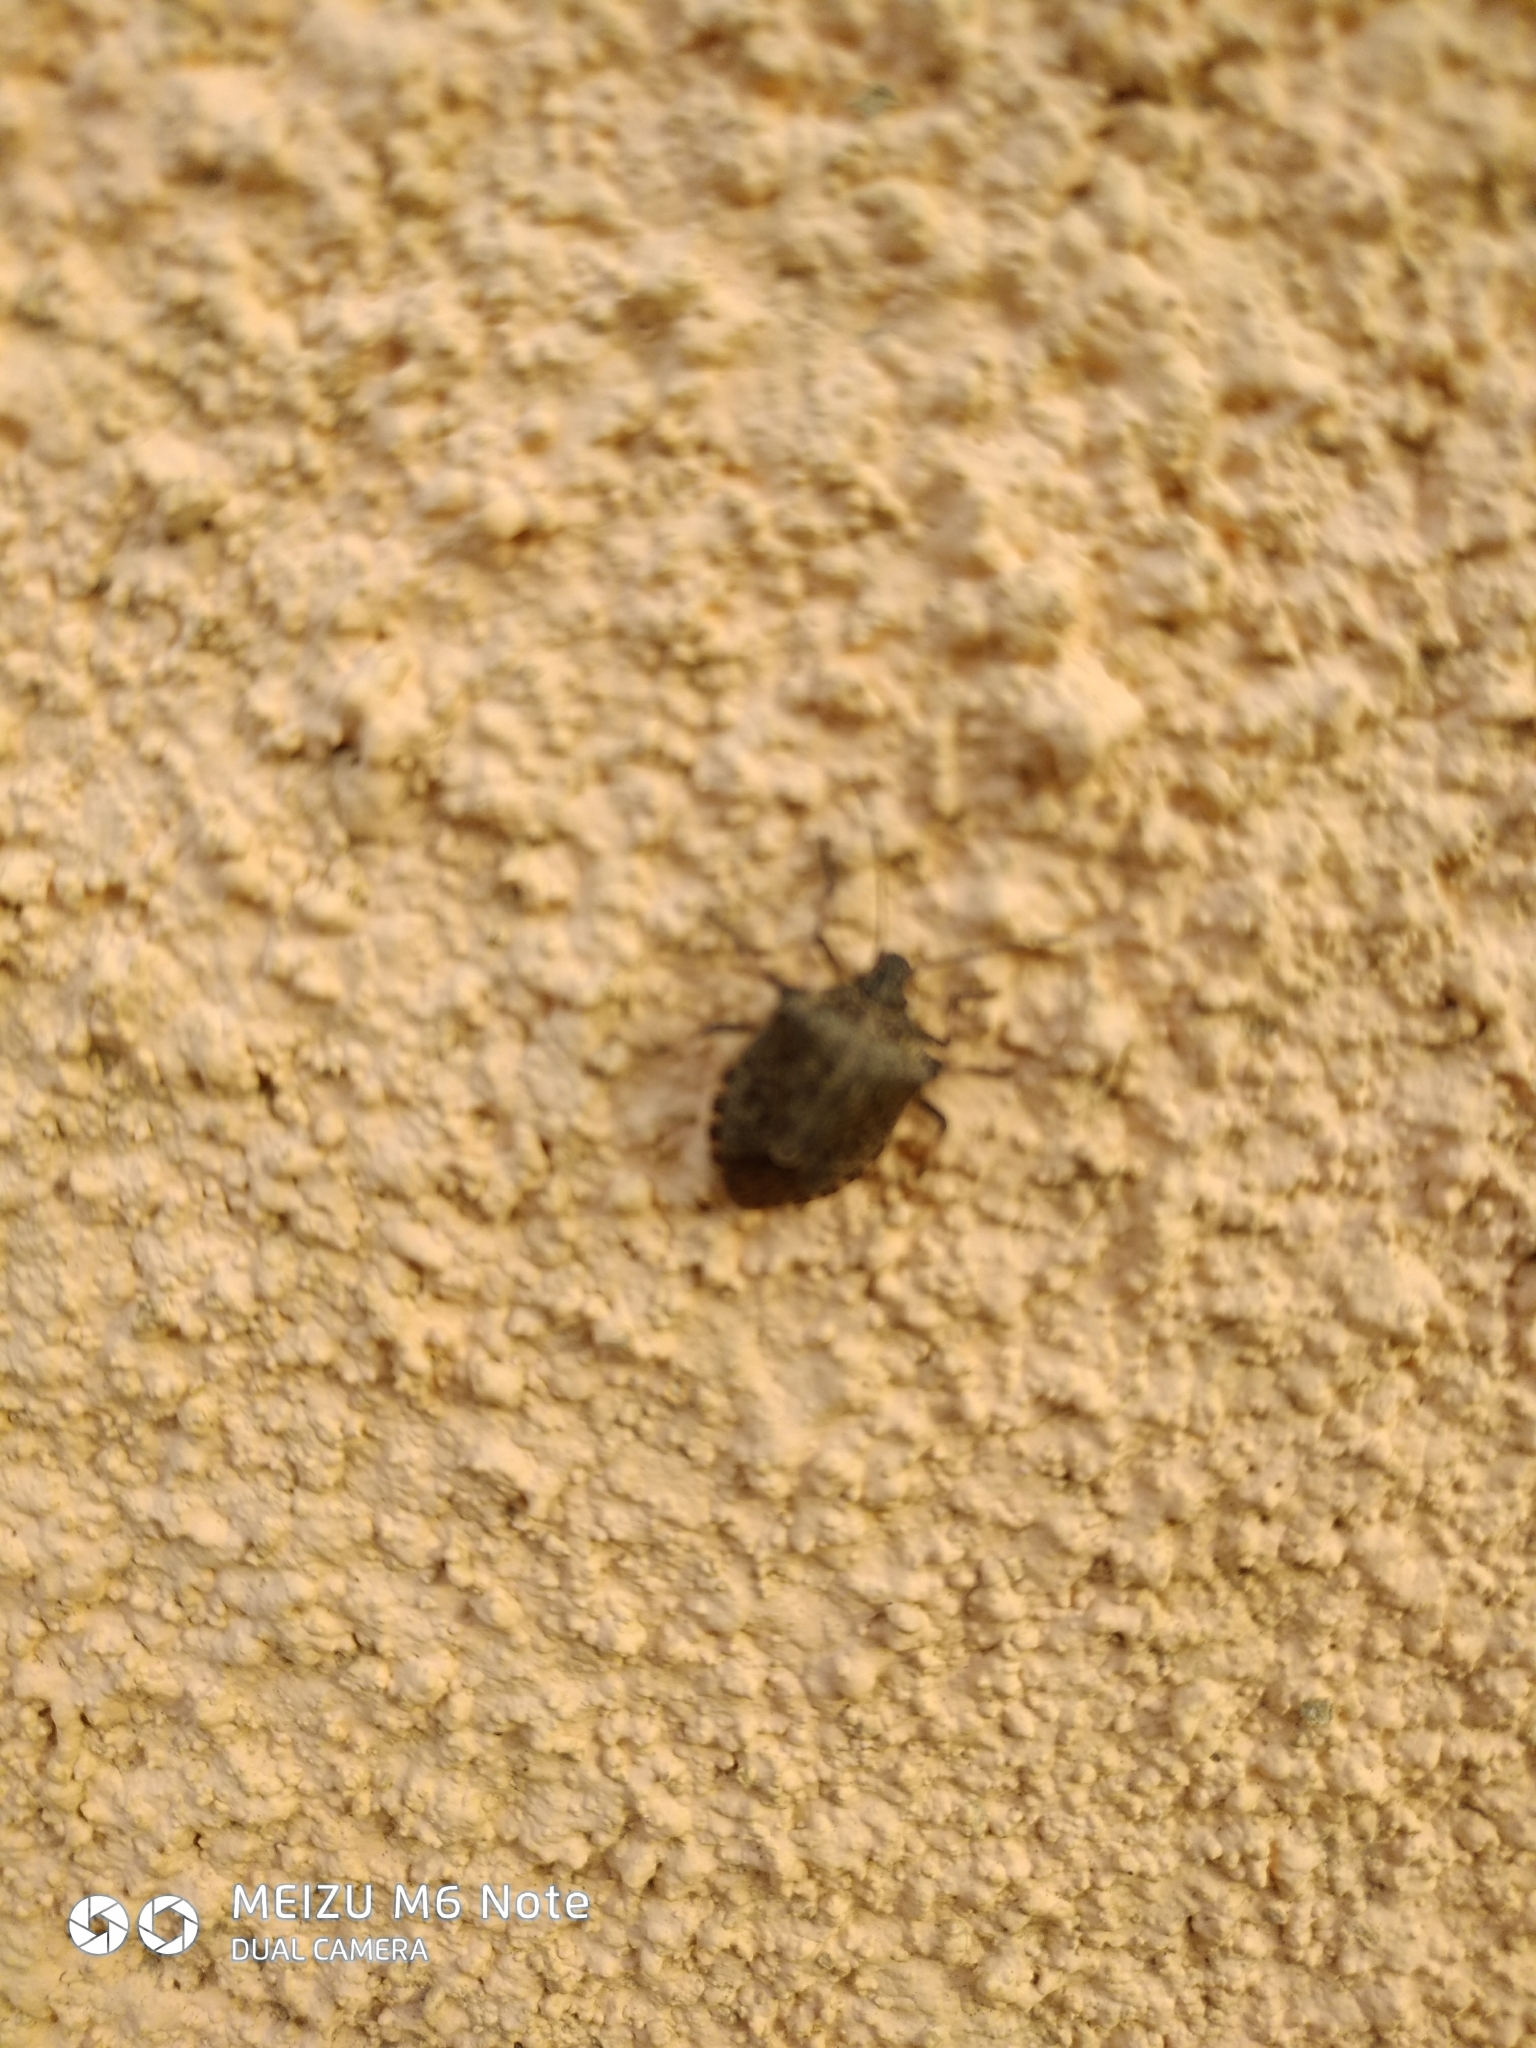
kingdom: Animalia
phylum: Arthropoda
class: Insecta
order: Hemiptera
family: Pentatomidae
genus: Halyomorpha
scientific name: Halyomorpha halys
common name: Brown marmorated stink bug
